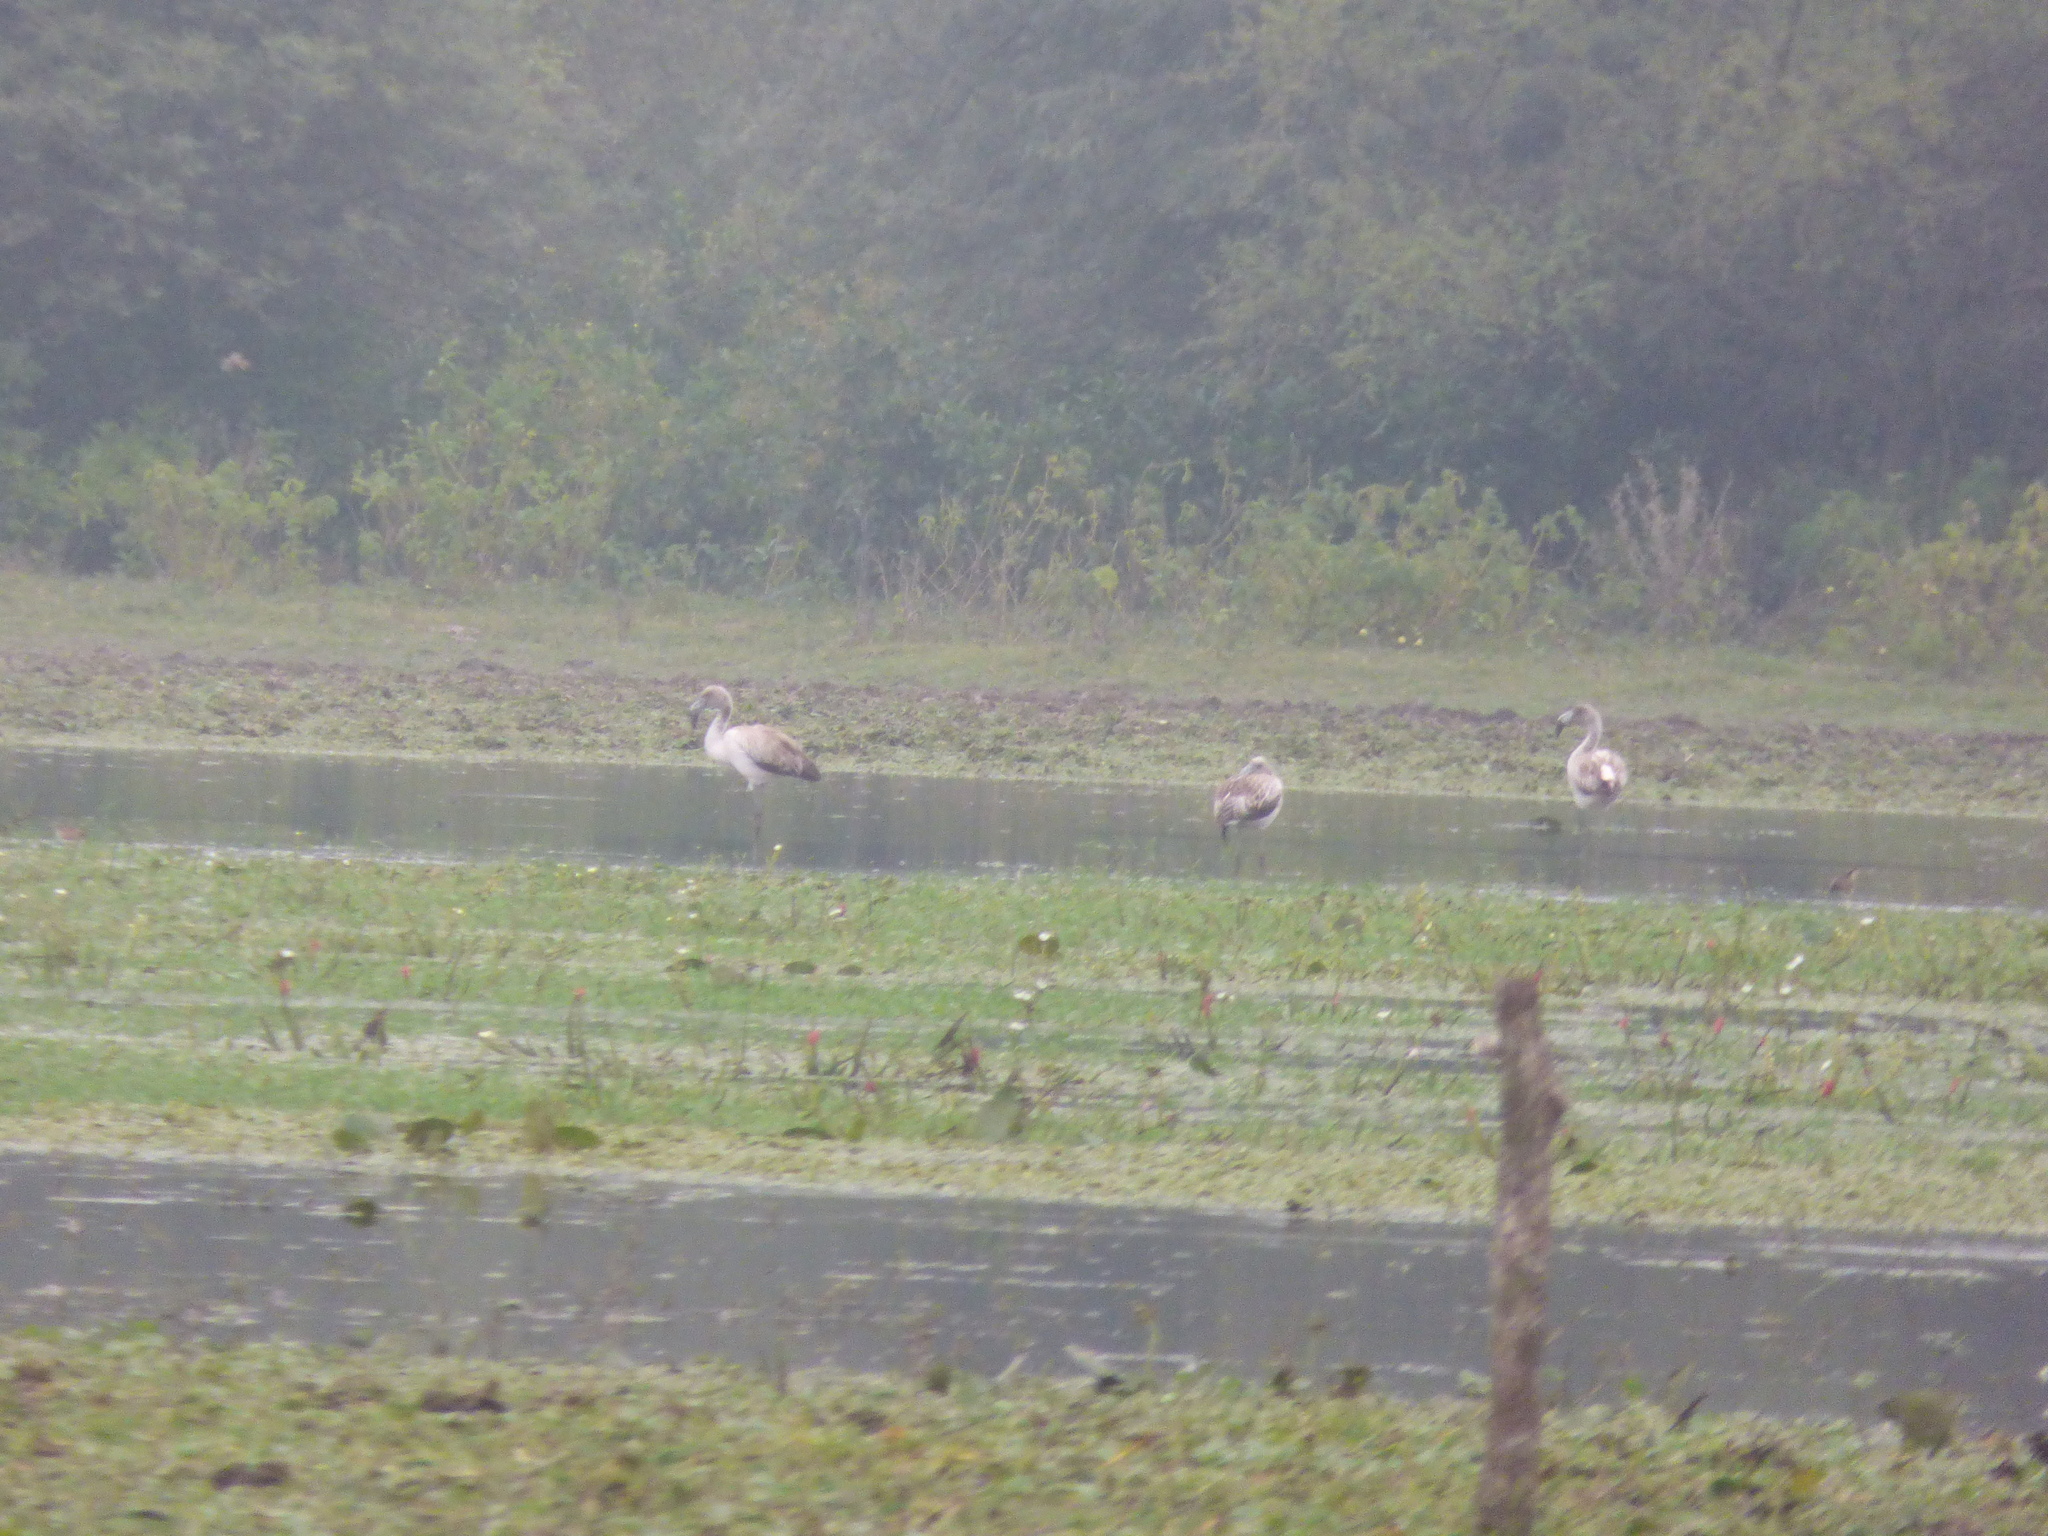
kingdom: Animalia
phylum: Chordata
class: Aves
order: Phoenicopteriformes
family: Phoenicopteridae
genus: Phoenicopterus
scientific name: Phoenicopterus chilensis
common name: Chilean flamingo
